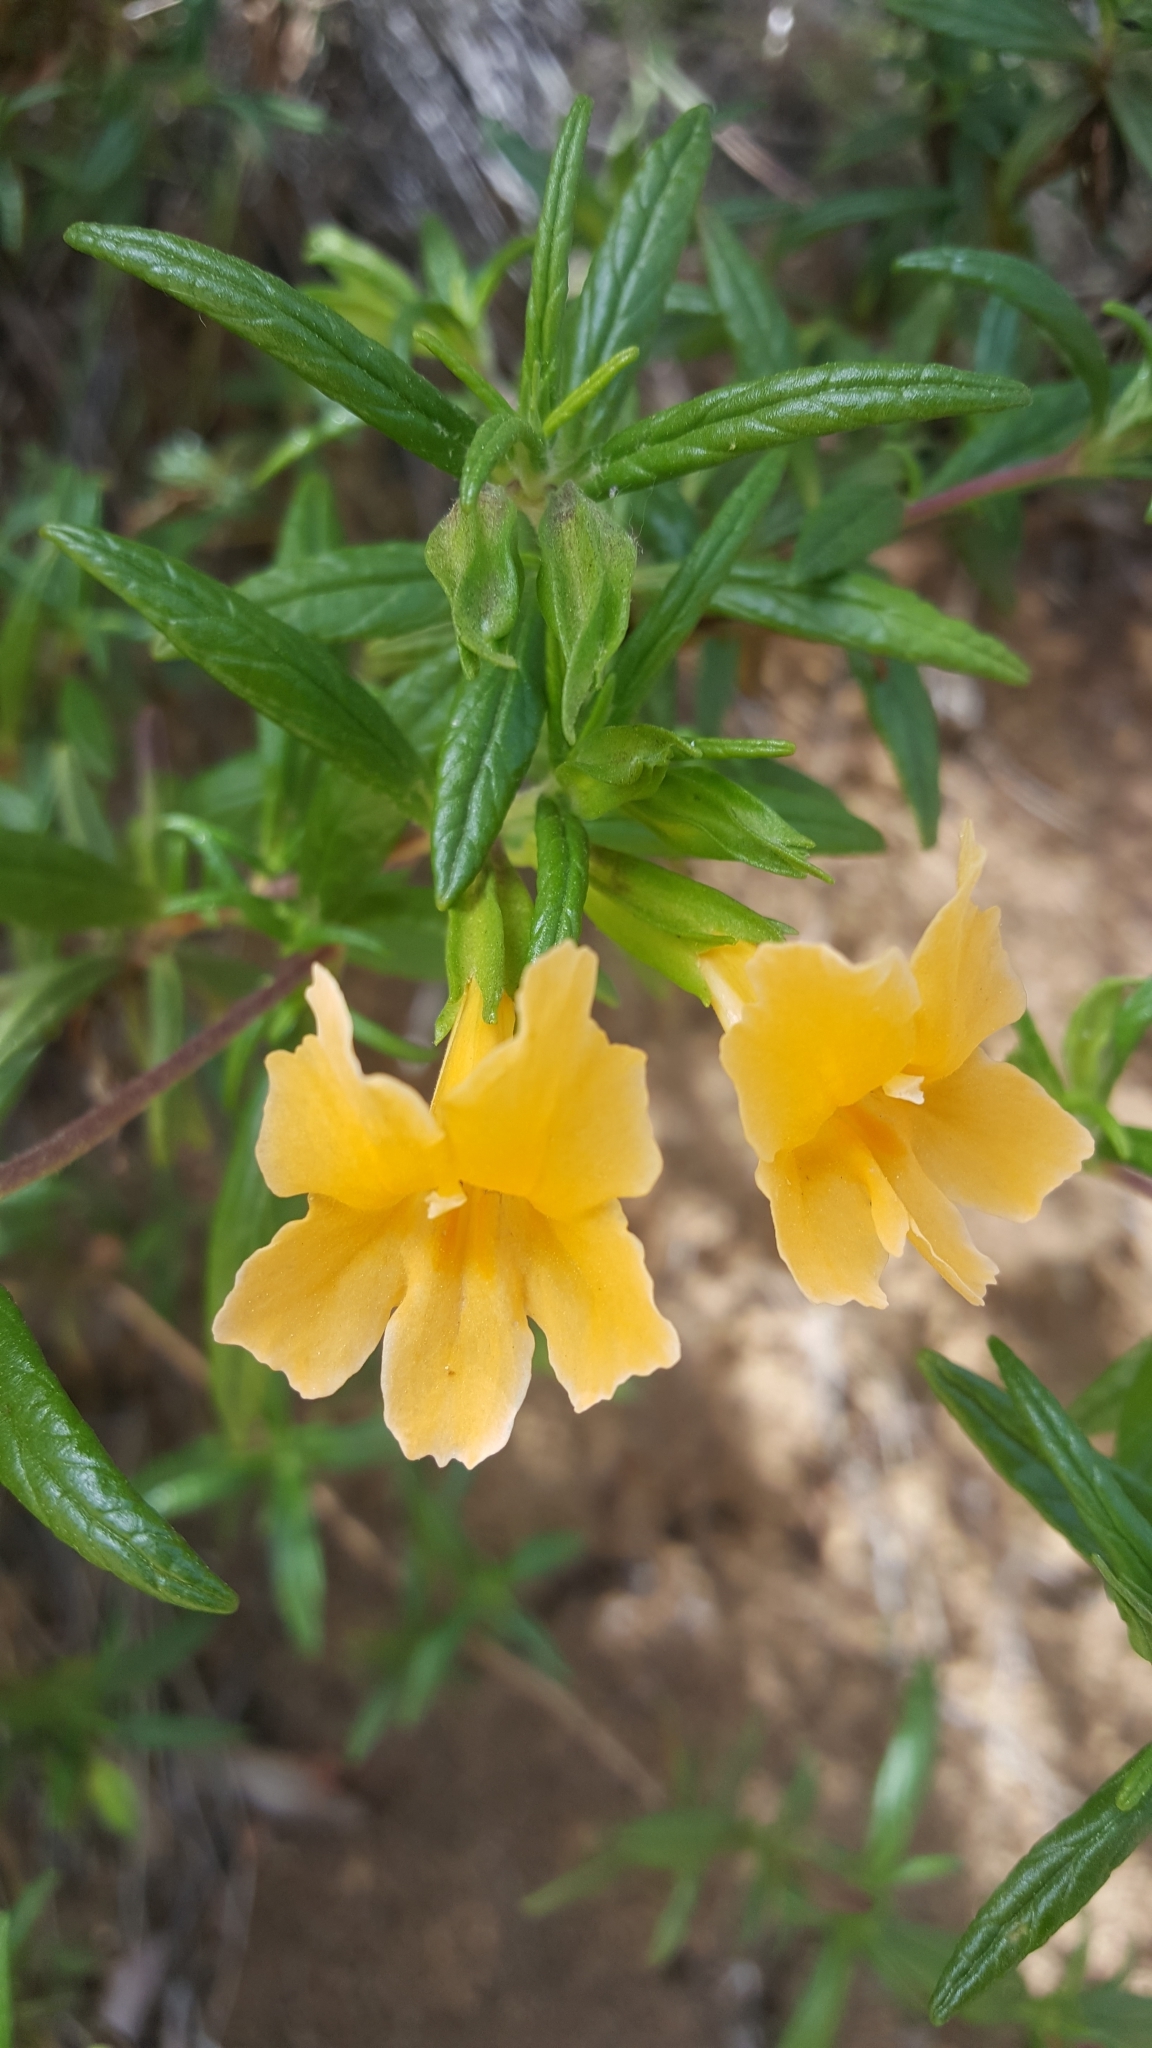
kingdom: Plantae
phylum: Tracheophyta
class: Magnoliopsida
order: Lamiales
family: Phrymaceae
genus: Diplacus
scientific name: Diplacus aurantiacus
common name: Bush monkey-flower
